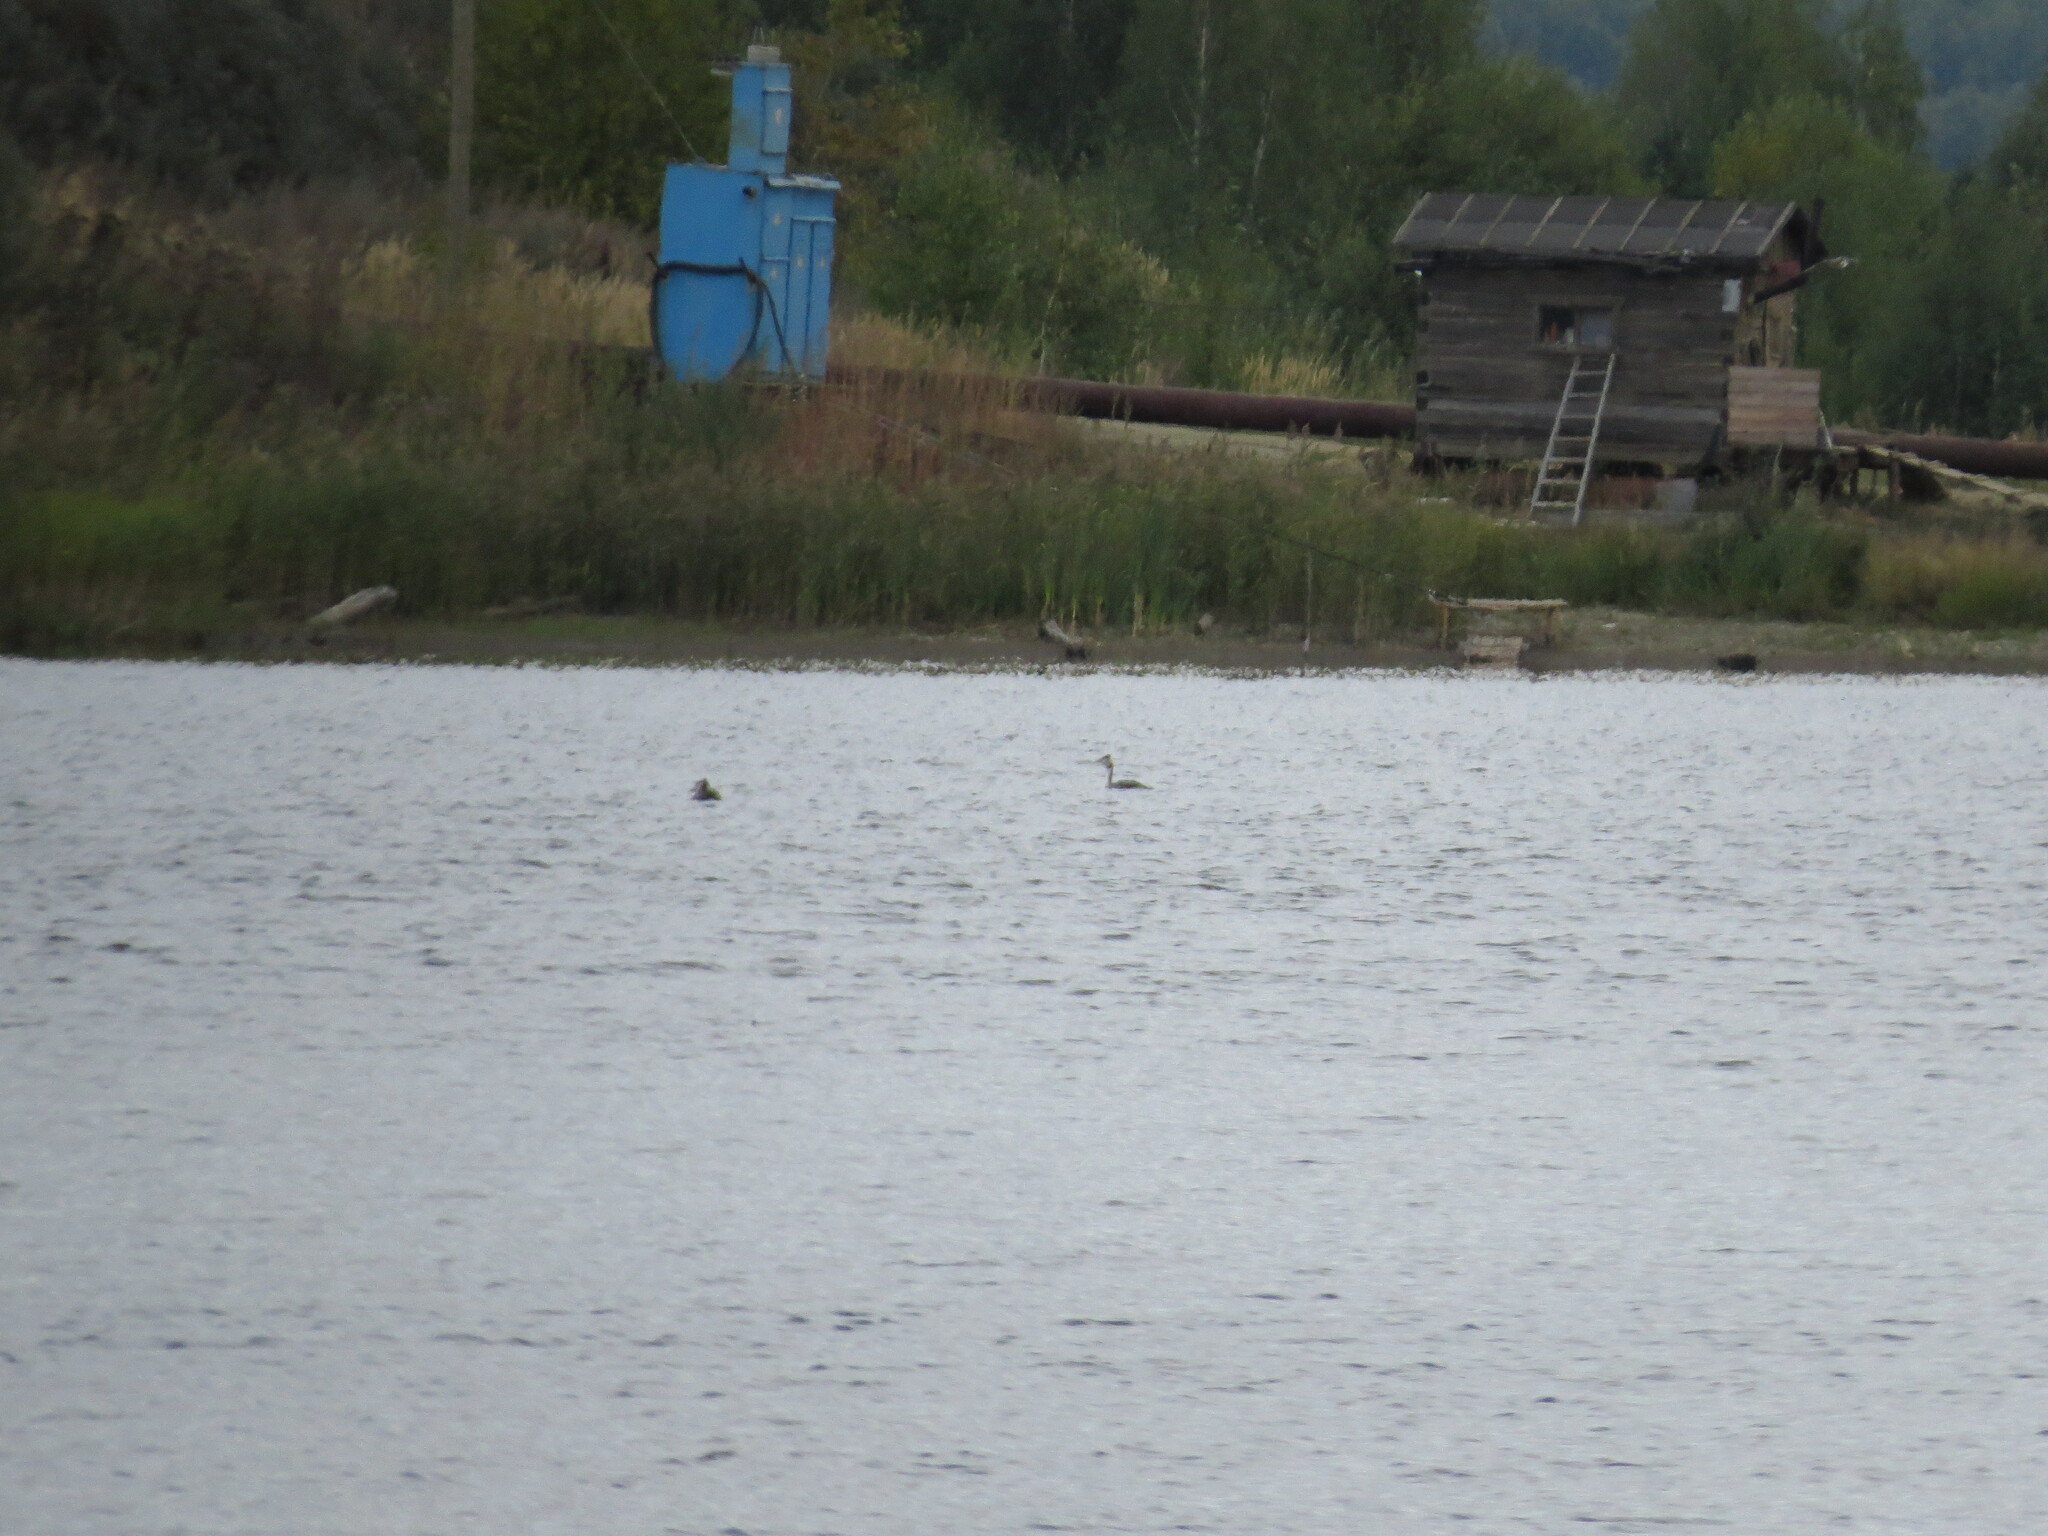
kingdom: Animalia
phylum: Chordata
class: Aves
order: Podicipediformes
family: Podicipedidae
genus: Podiceps
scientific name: Podiceps cristatus
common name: Great crested grebe
